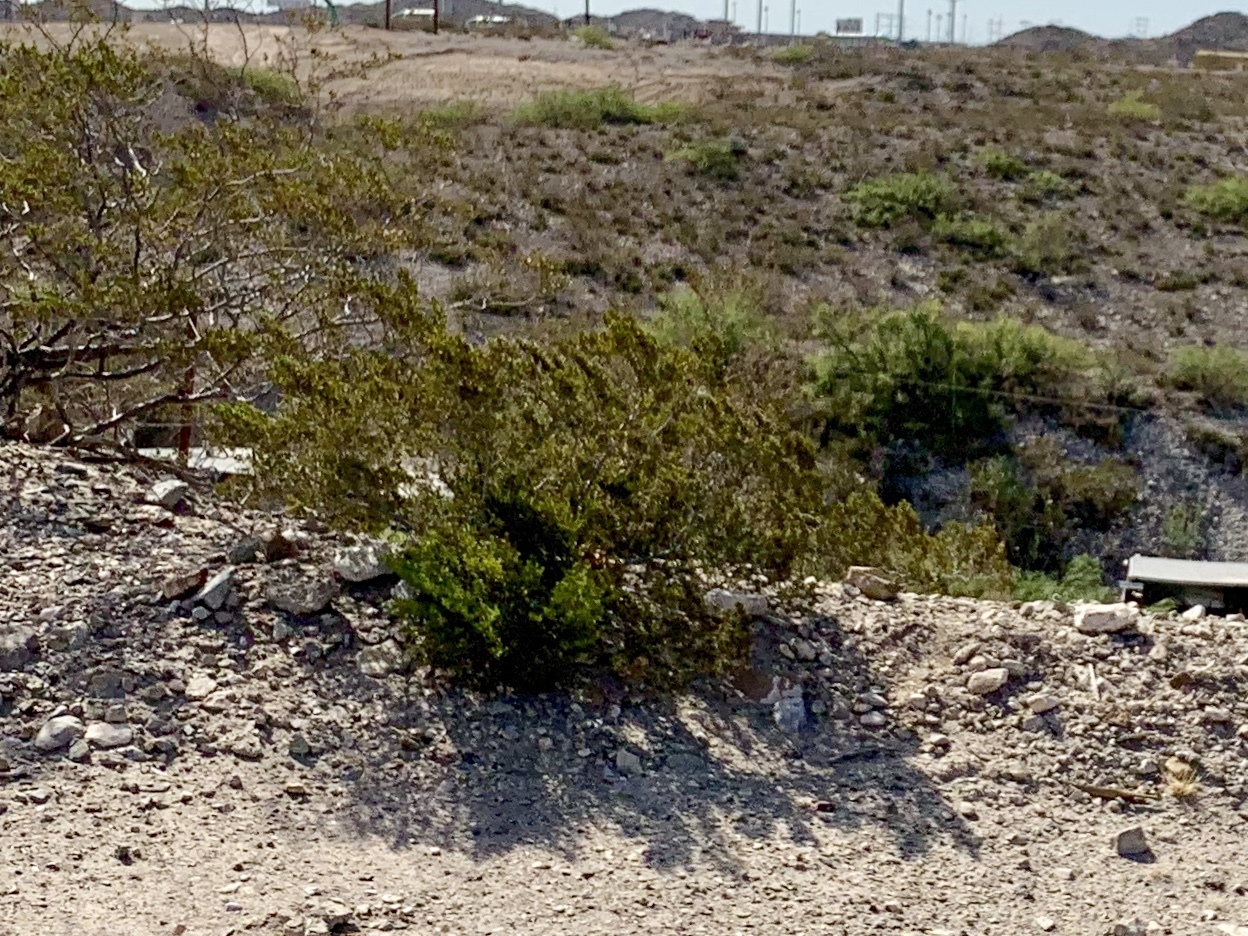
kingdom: Plantae
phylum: Tracheophyta
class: Magnoliopsida
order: Zygophyllales
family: Zygophyllaceae
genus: Larrea
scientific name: Larrea tridentata
